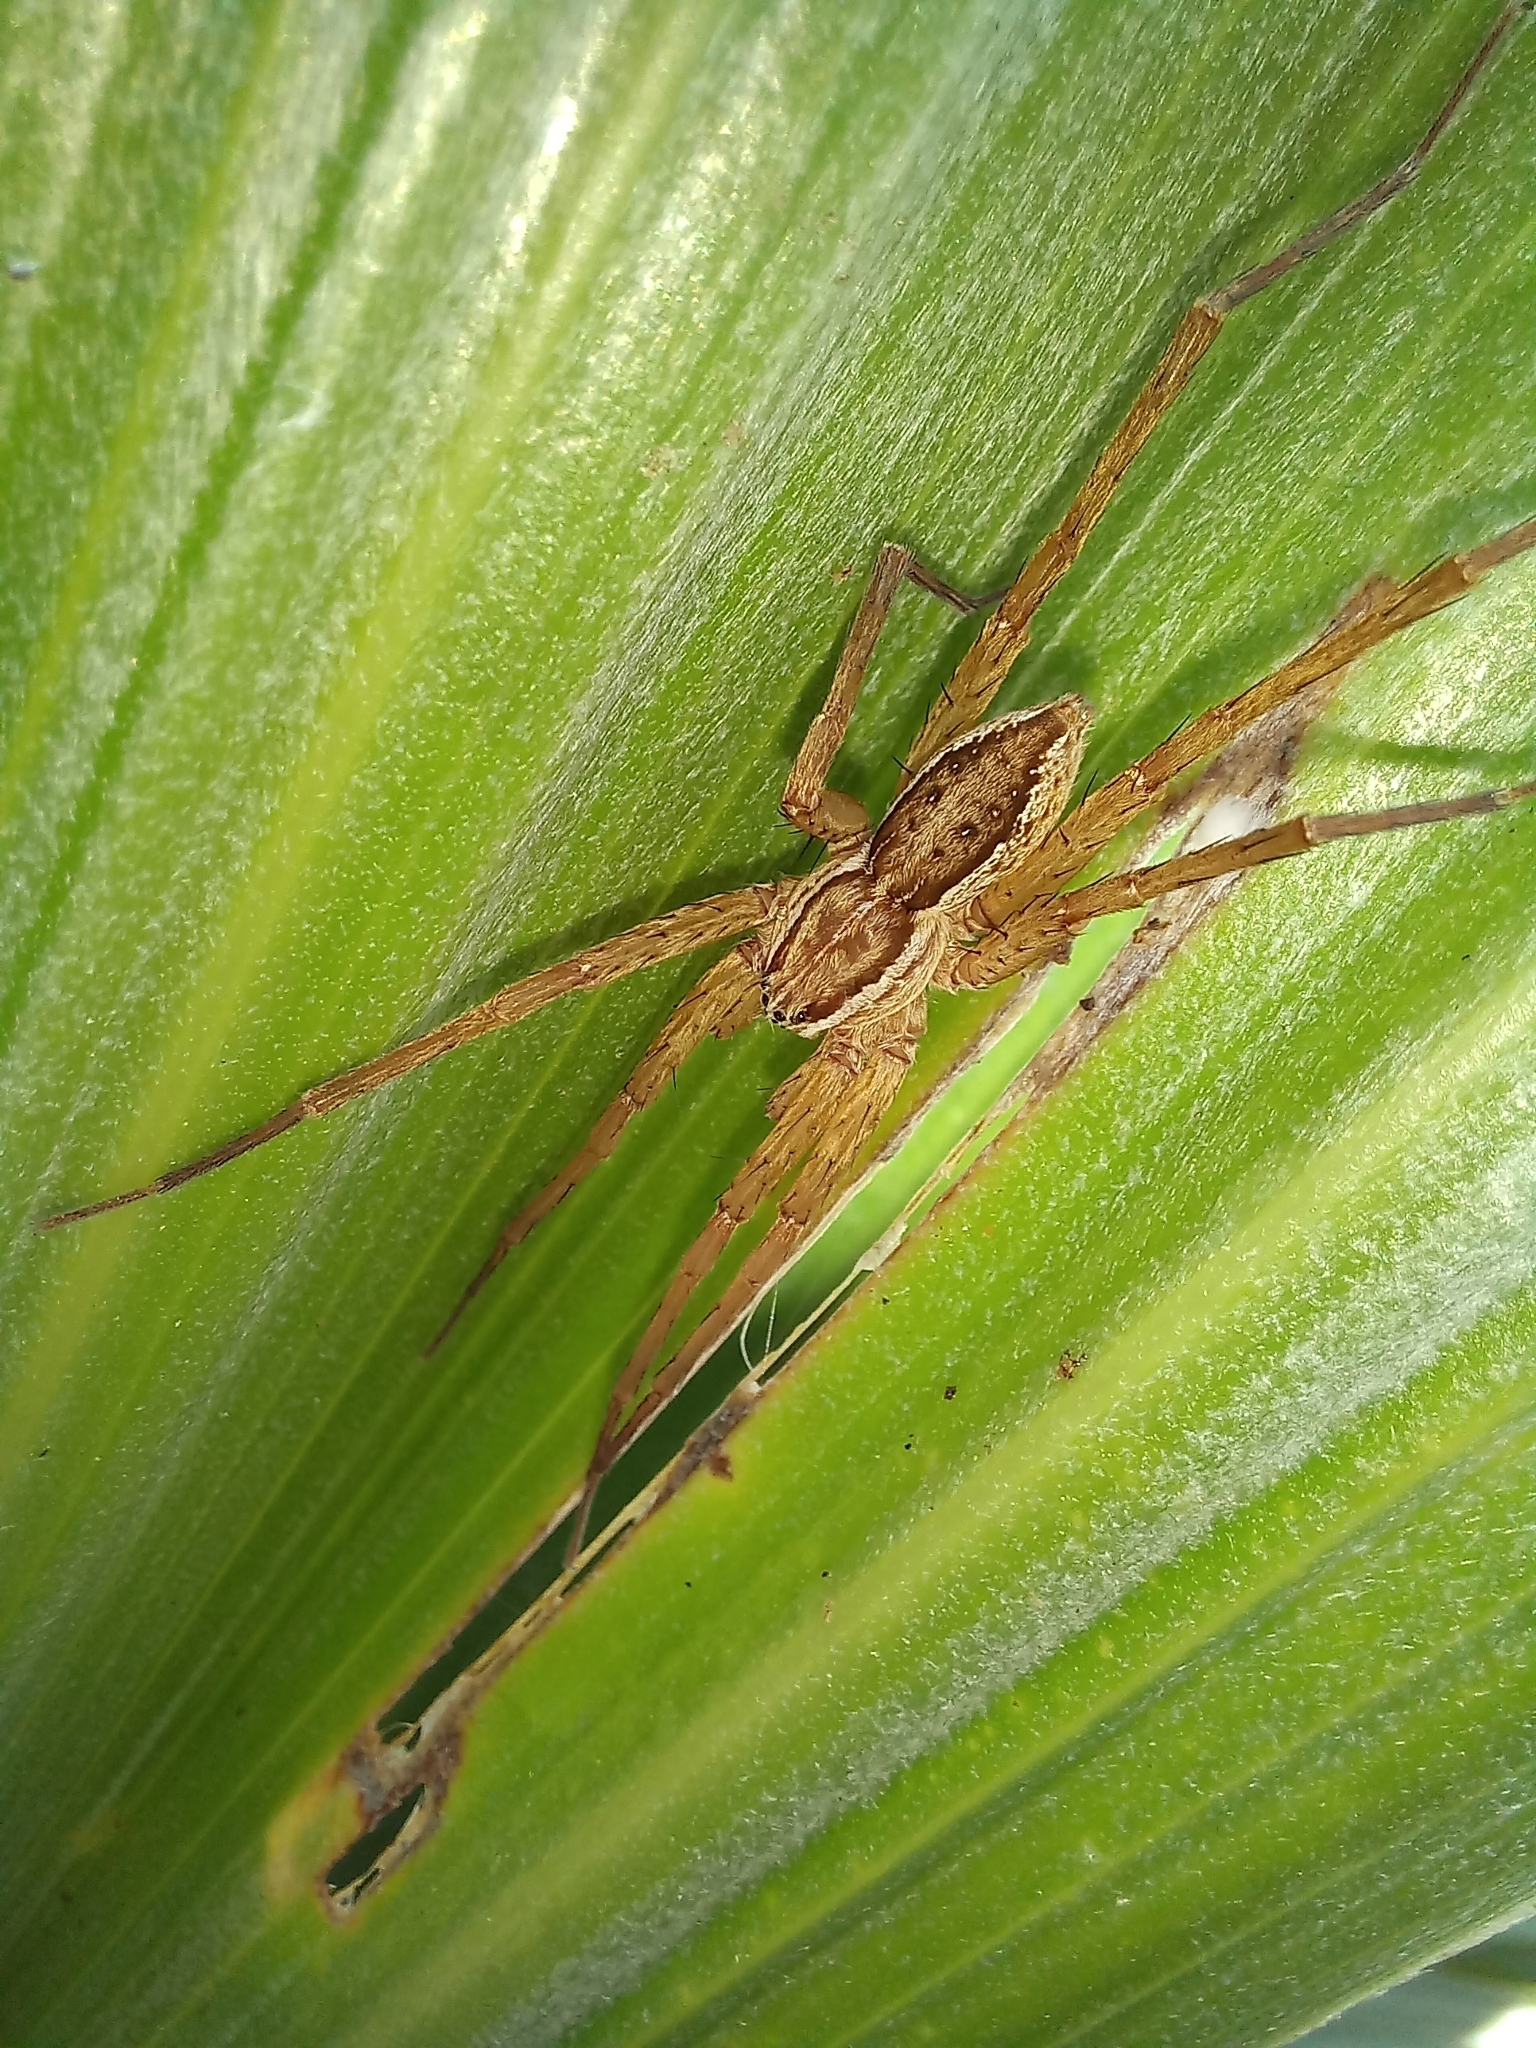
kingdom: Animalia
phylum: Arthropoda
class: Arachnida
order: Araneae
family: Pisauridae
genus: Dolomedes
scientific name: Dolomedes minor
